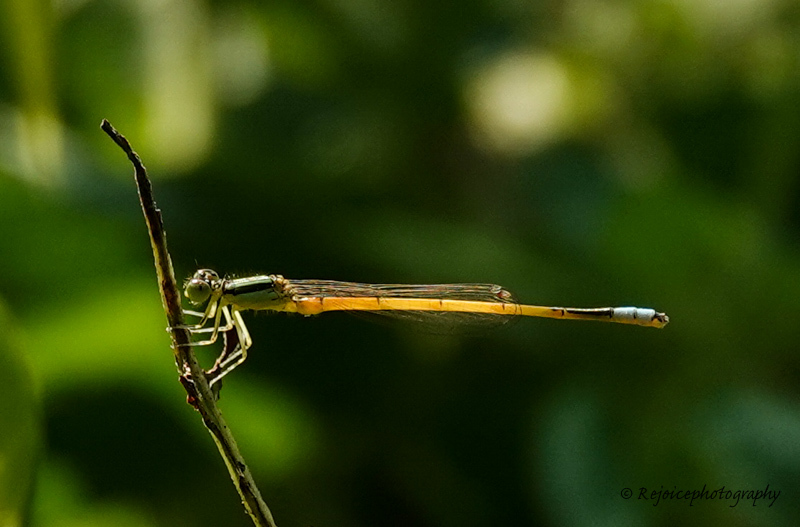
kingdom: Animalia
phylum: Arthropoda
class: Insecta
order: Odonata
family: Coenagrionidae
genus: Ischnura
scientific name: Ischnura rubilio
